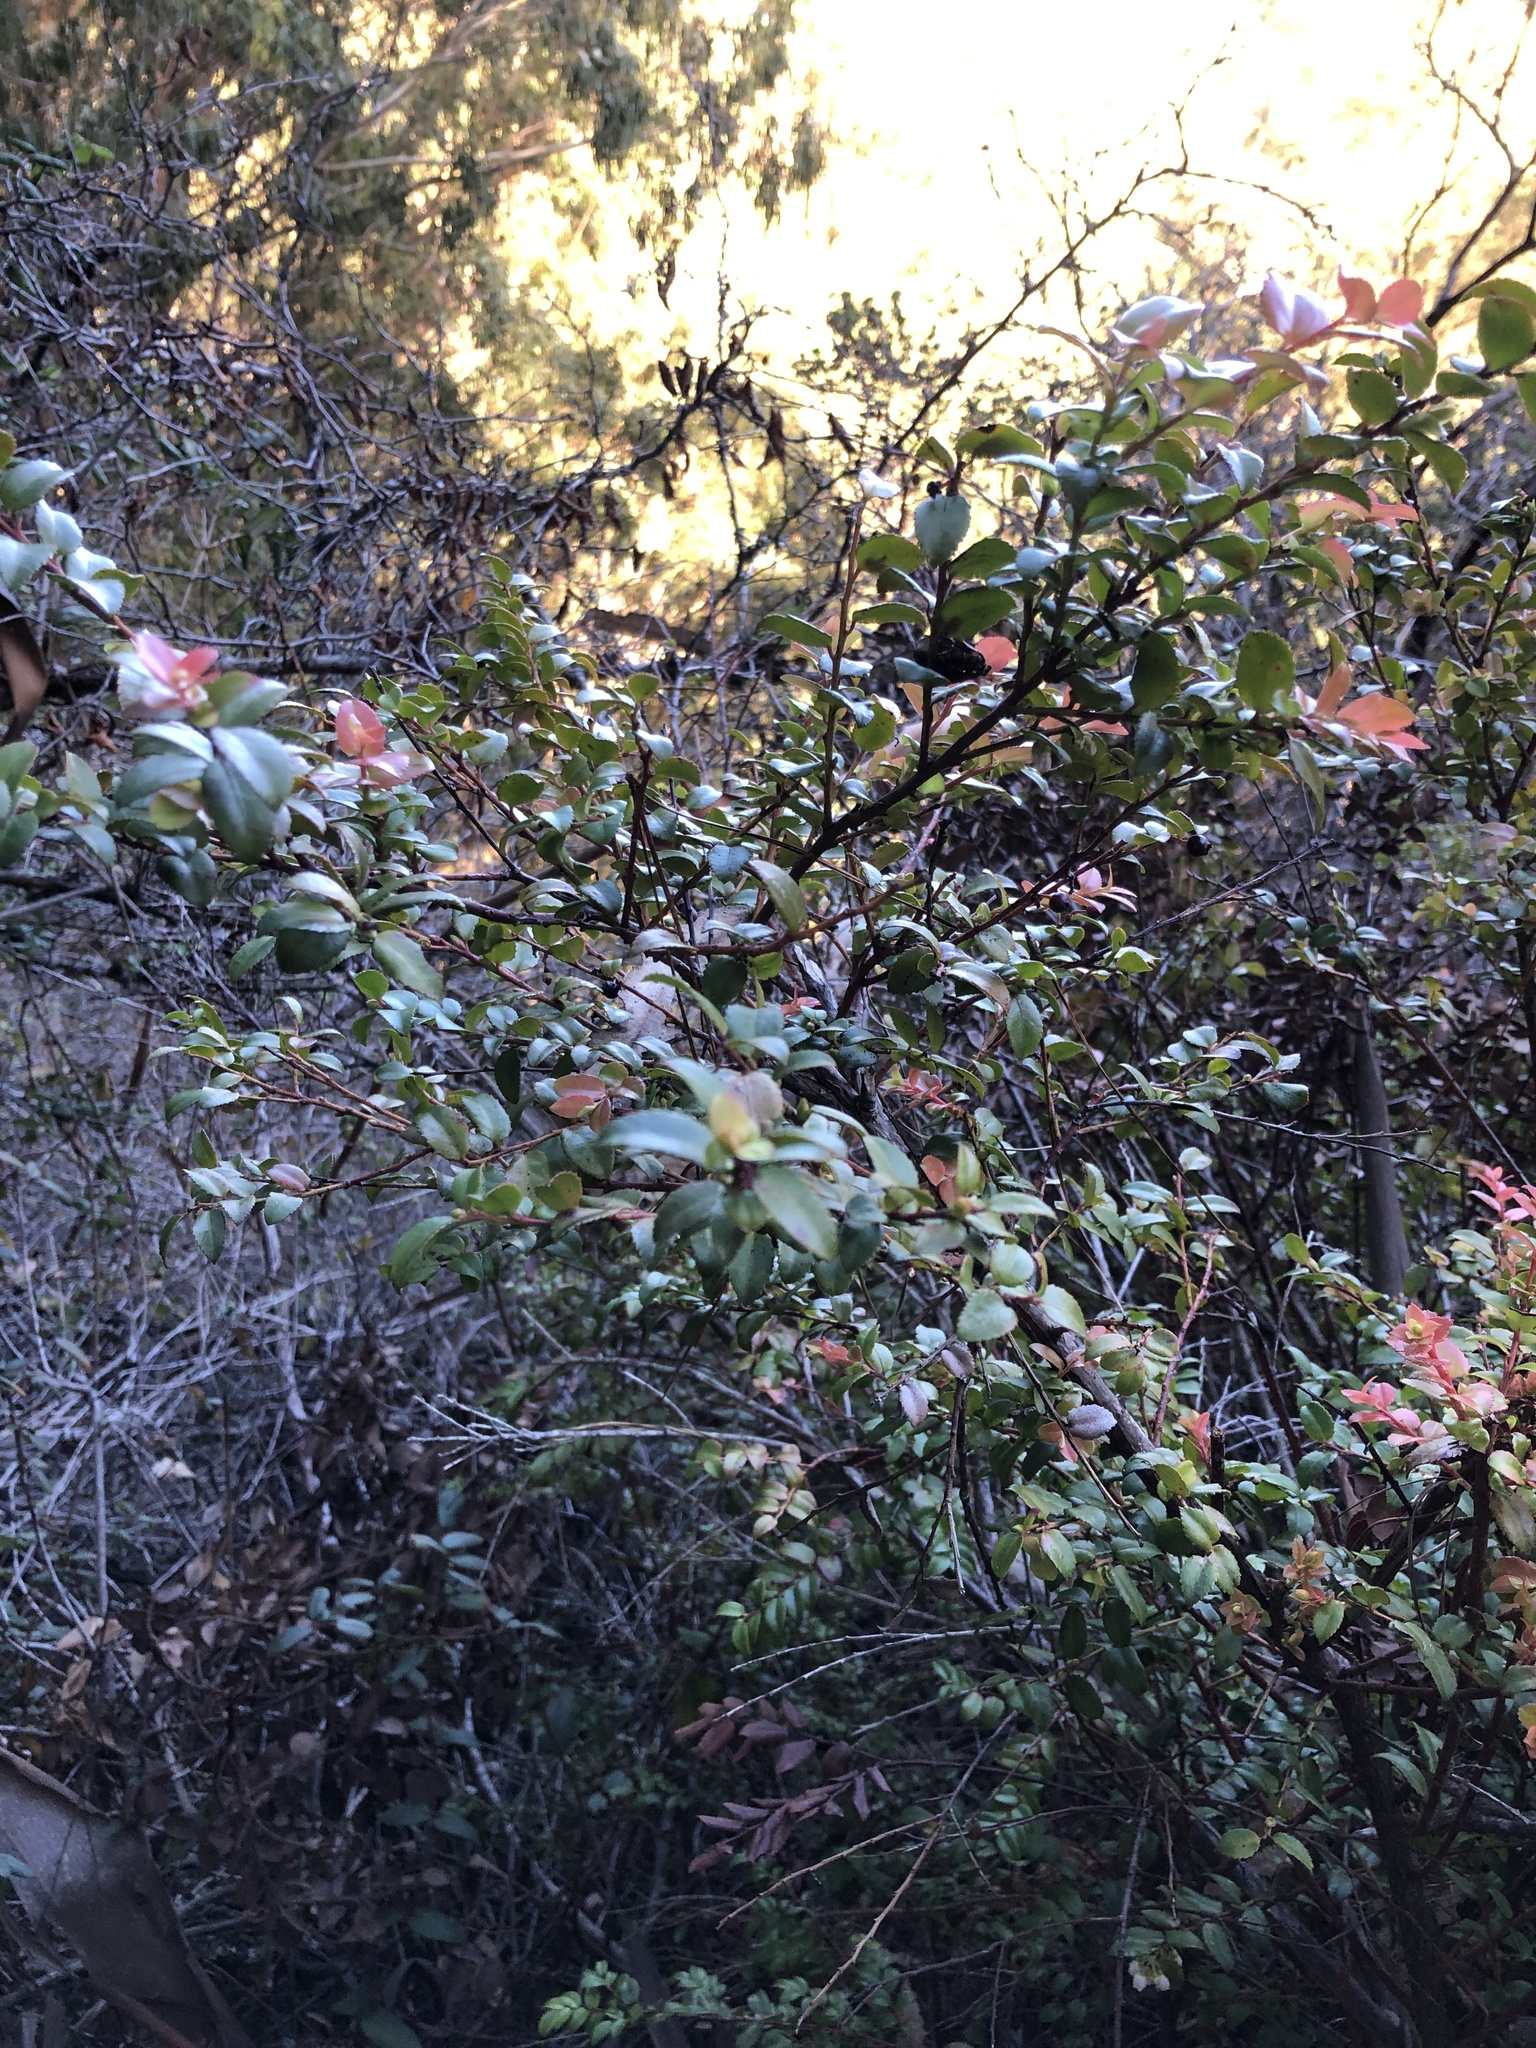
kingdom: Plantae
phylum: Tracheophyta
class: Magnoliopsida
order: Ericales
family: Ericaceae
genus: Vaccinium
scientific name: Vaccinium ovatum
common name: California-huckleberry
